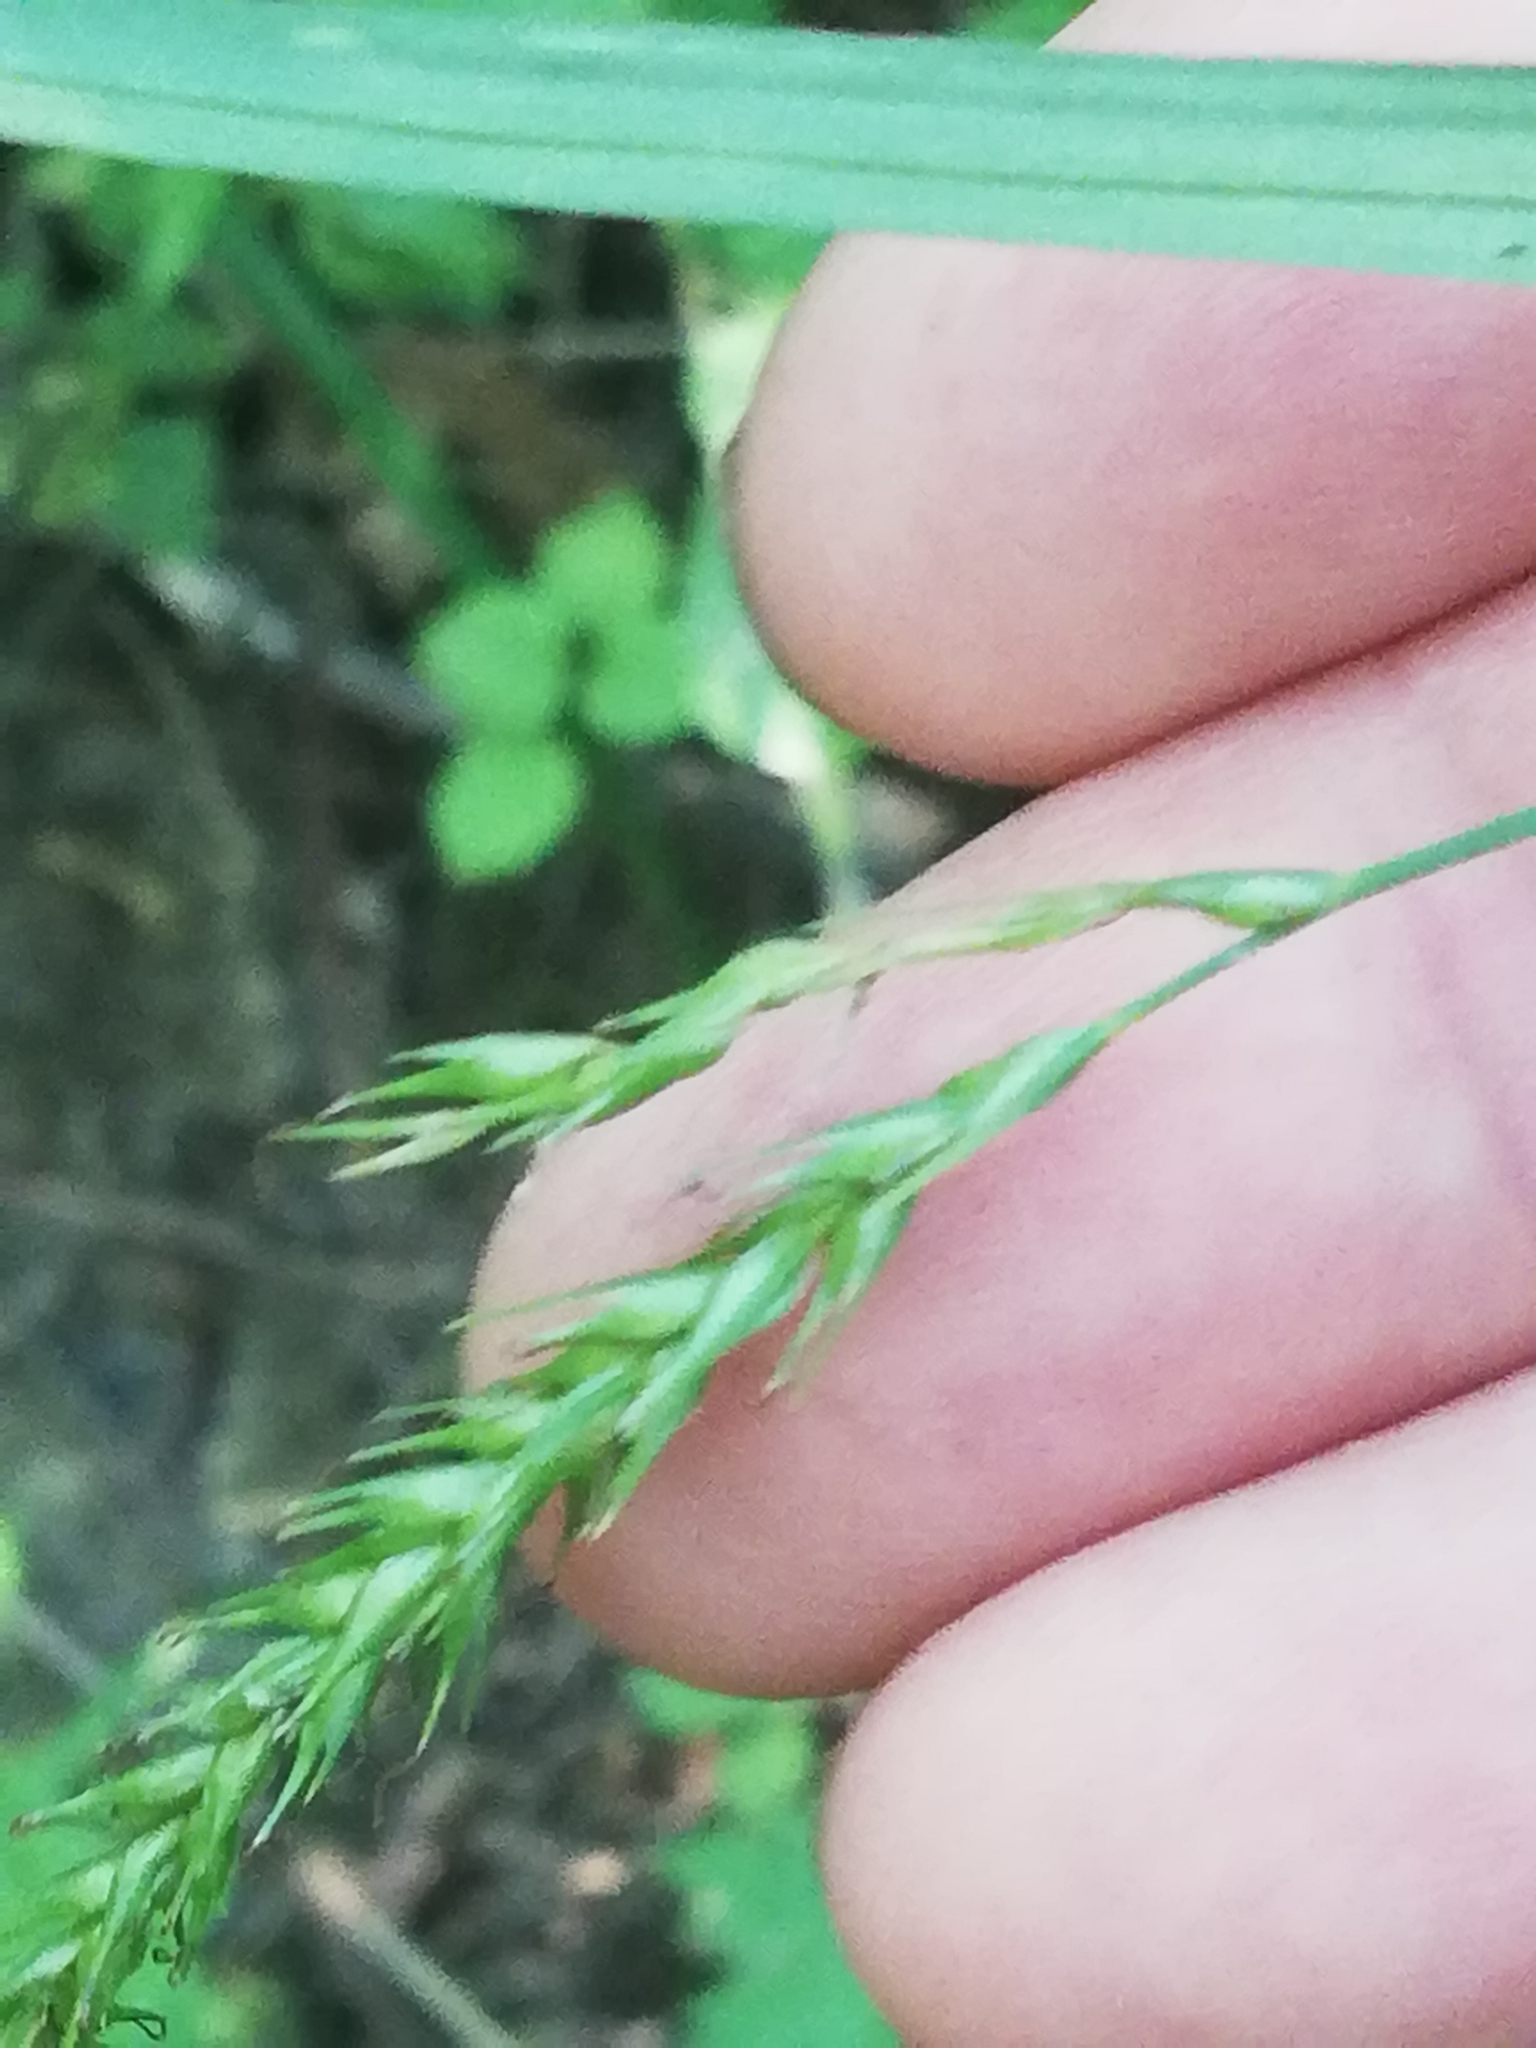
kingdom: Plantae
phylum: Tracheophyta
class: Liliopsida
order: Poales
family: Cyperaceae
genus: Carex
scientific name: Carex sylvatica
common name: Wood-sedge
